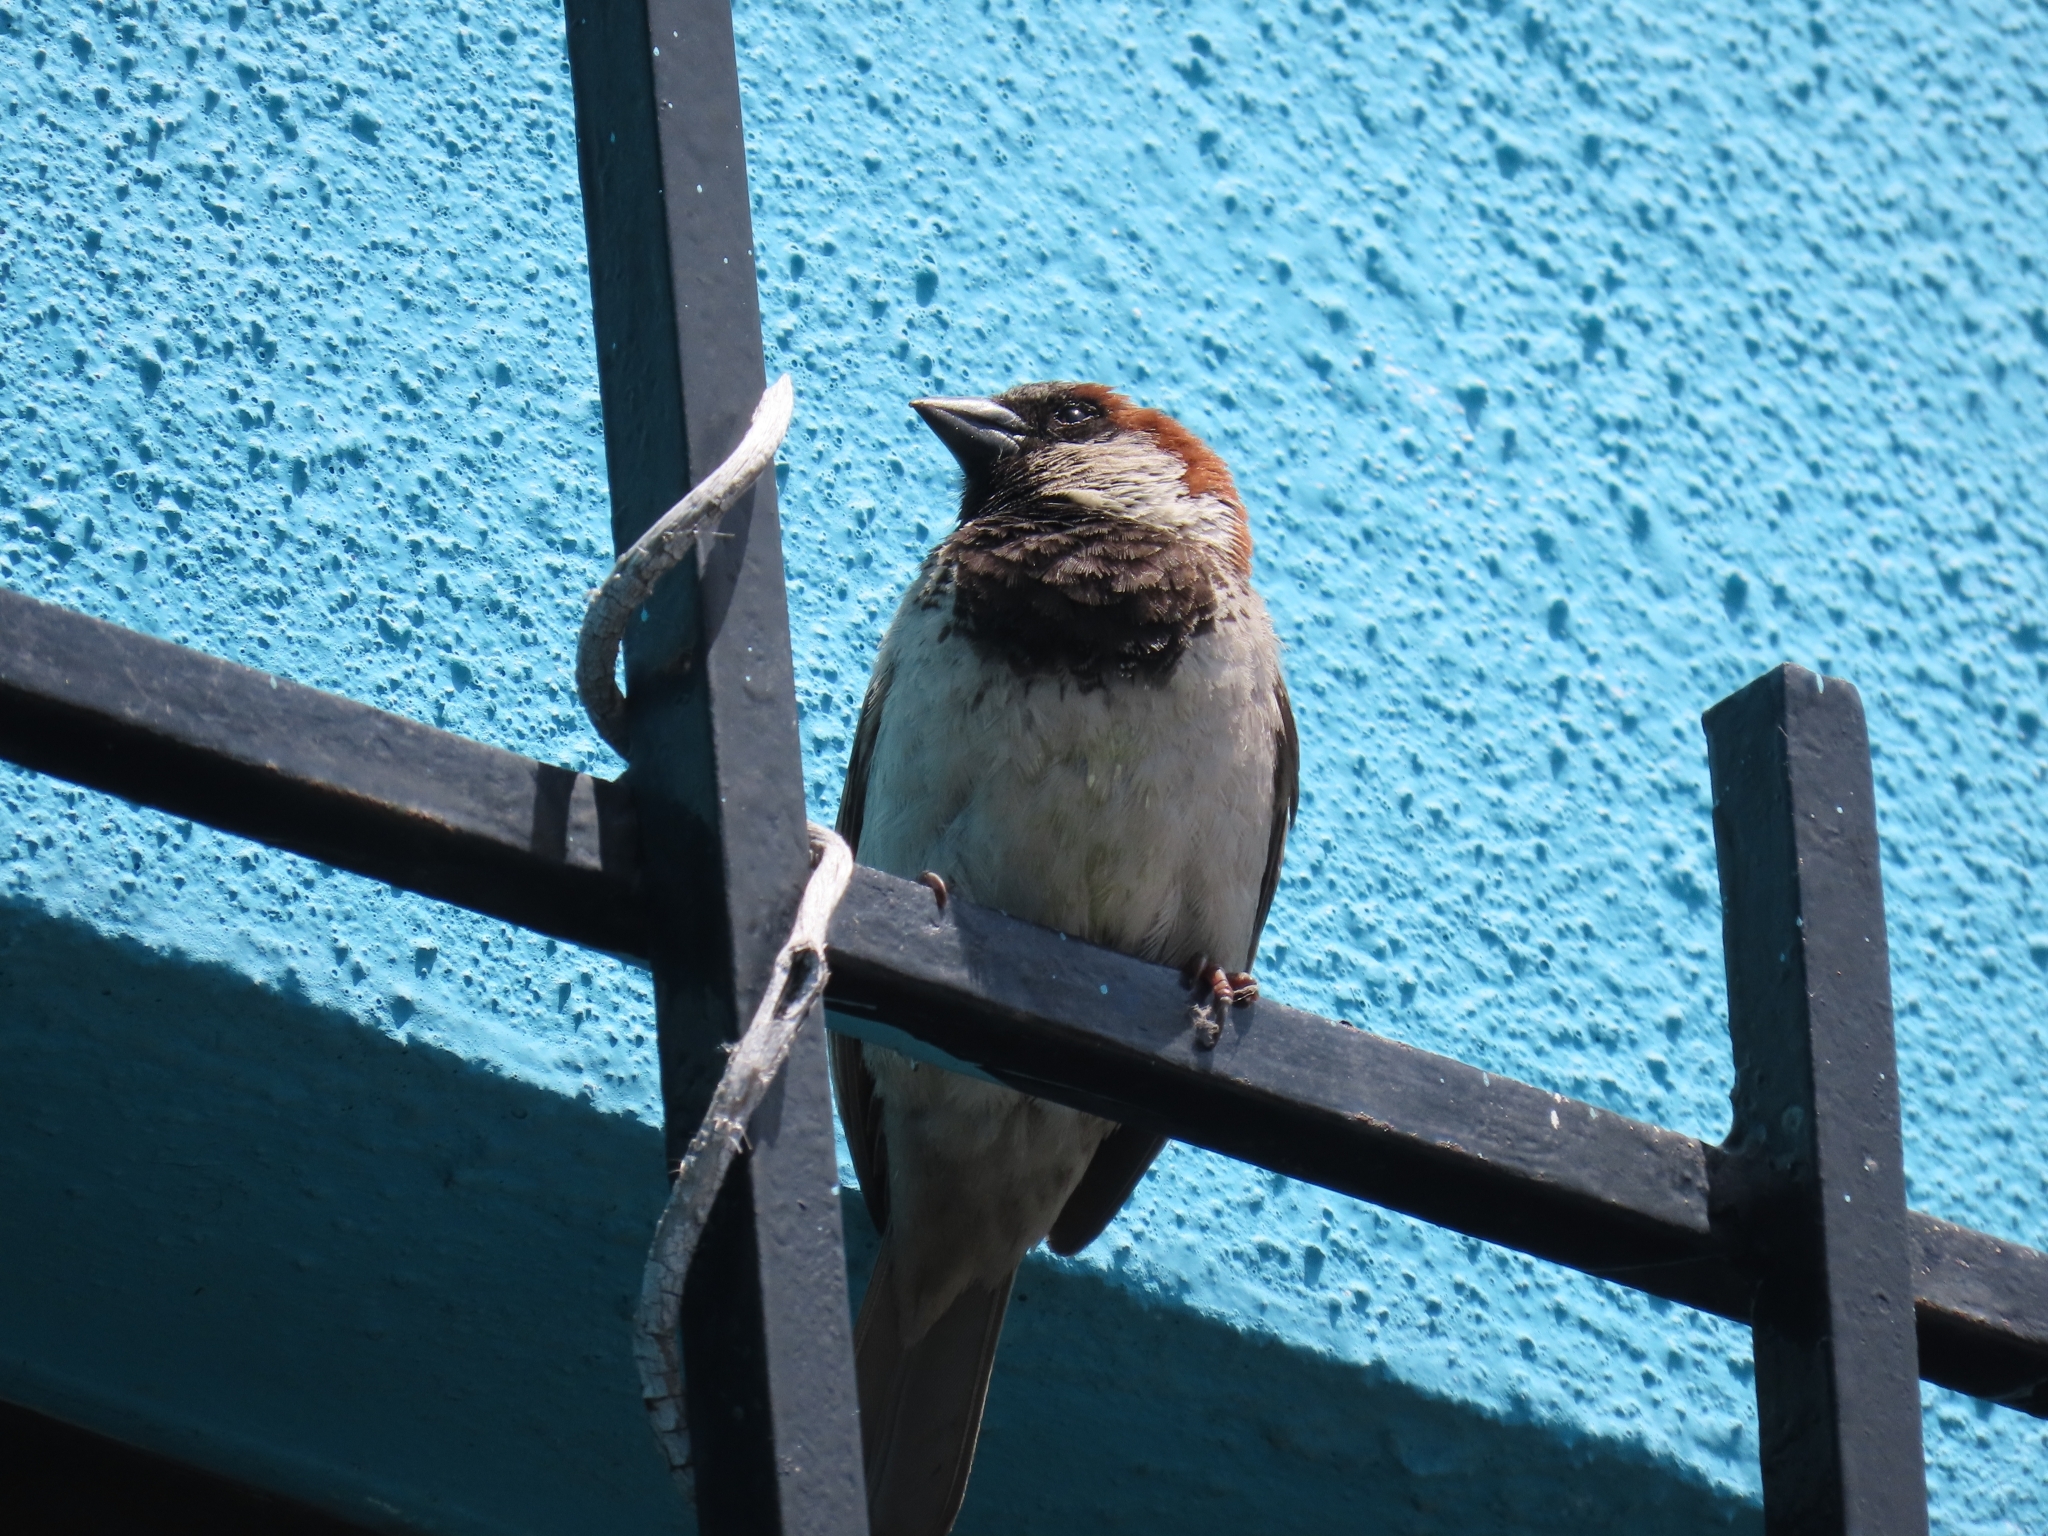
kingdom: Animalia
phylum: Chordata
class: Aves
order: Passeriformes
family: Passeridae
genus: Passer
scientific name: Passer domesticus
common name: House sparrow
